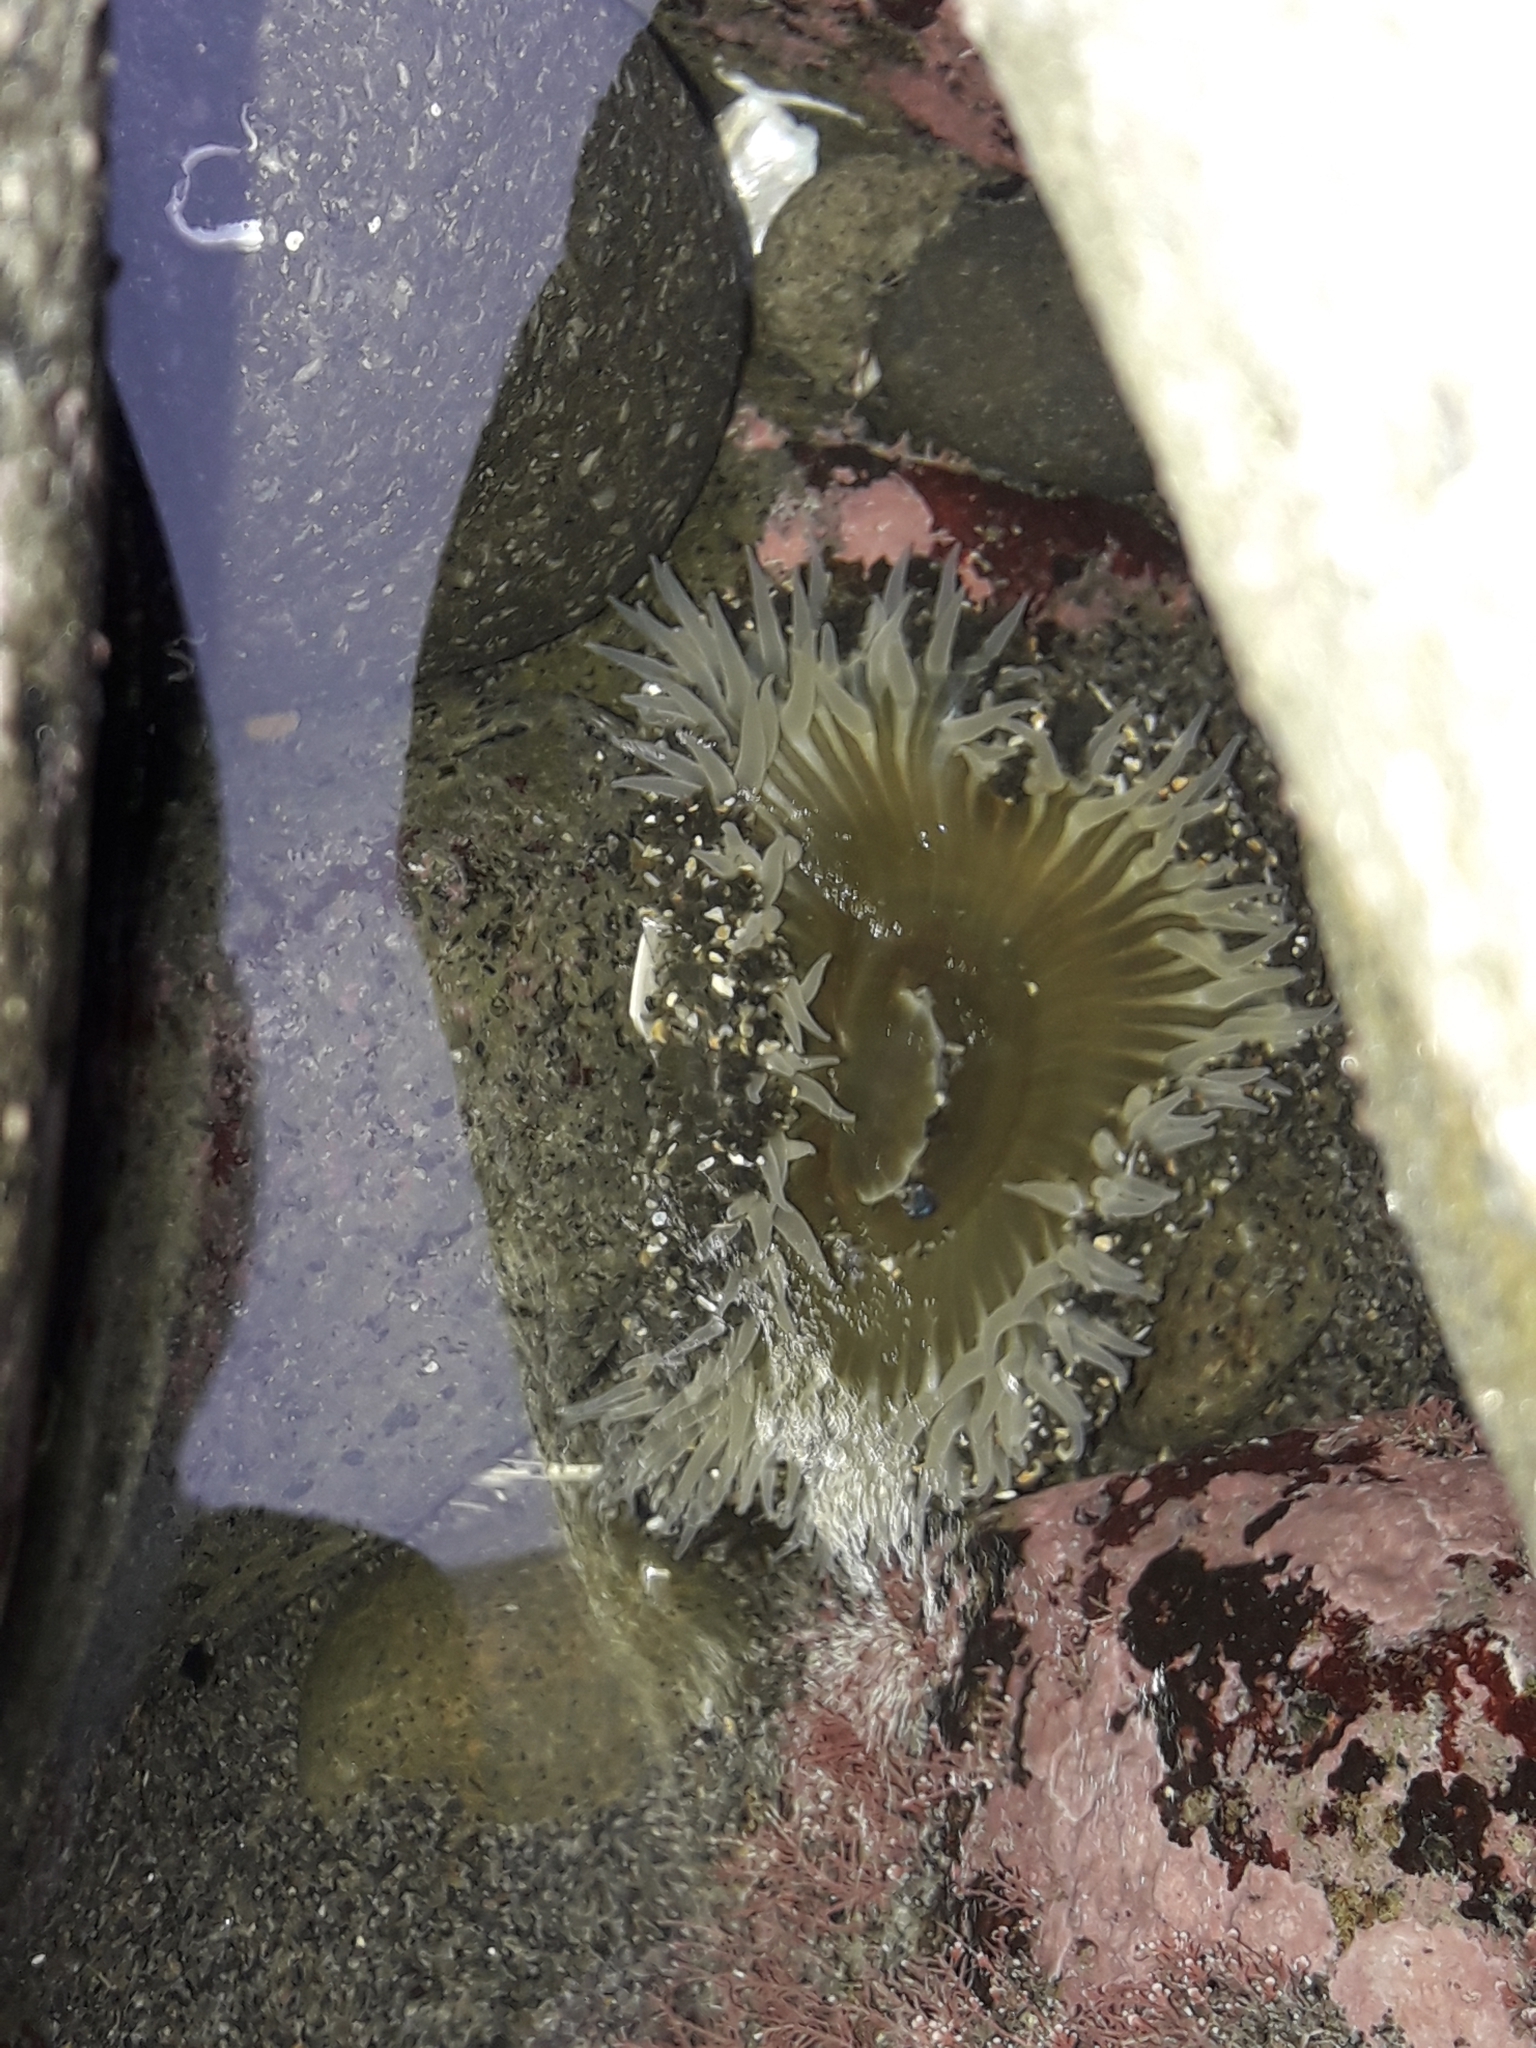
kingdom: Animalia
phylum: Cnidaria
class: Anthozoa
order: Actiniaria
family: Actiniidae
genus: Oulactis
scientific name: Oulactis magna
